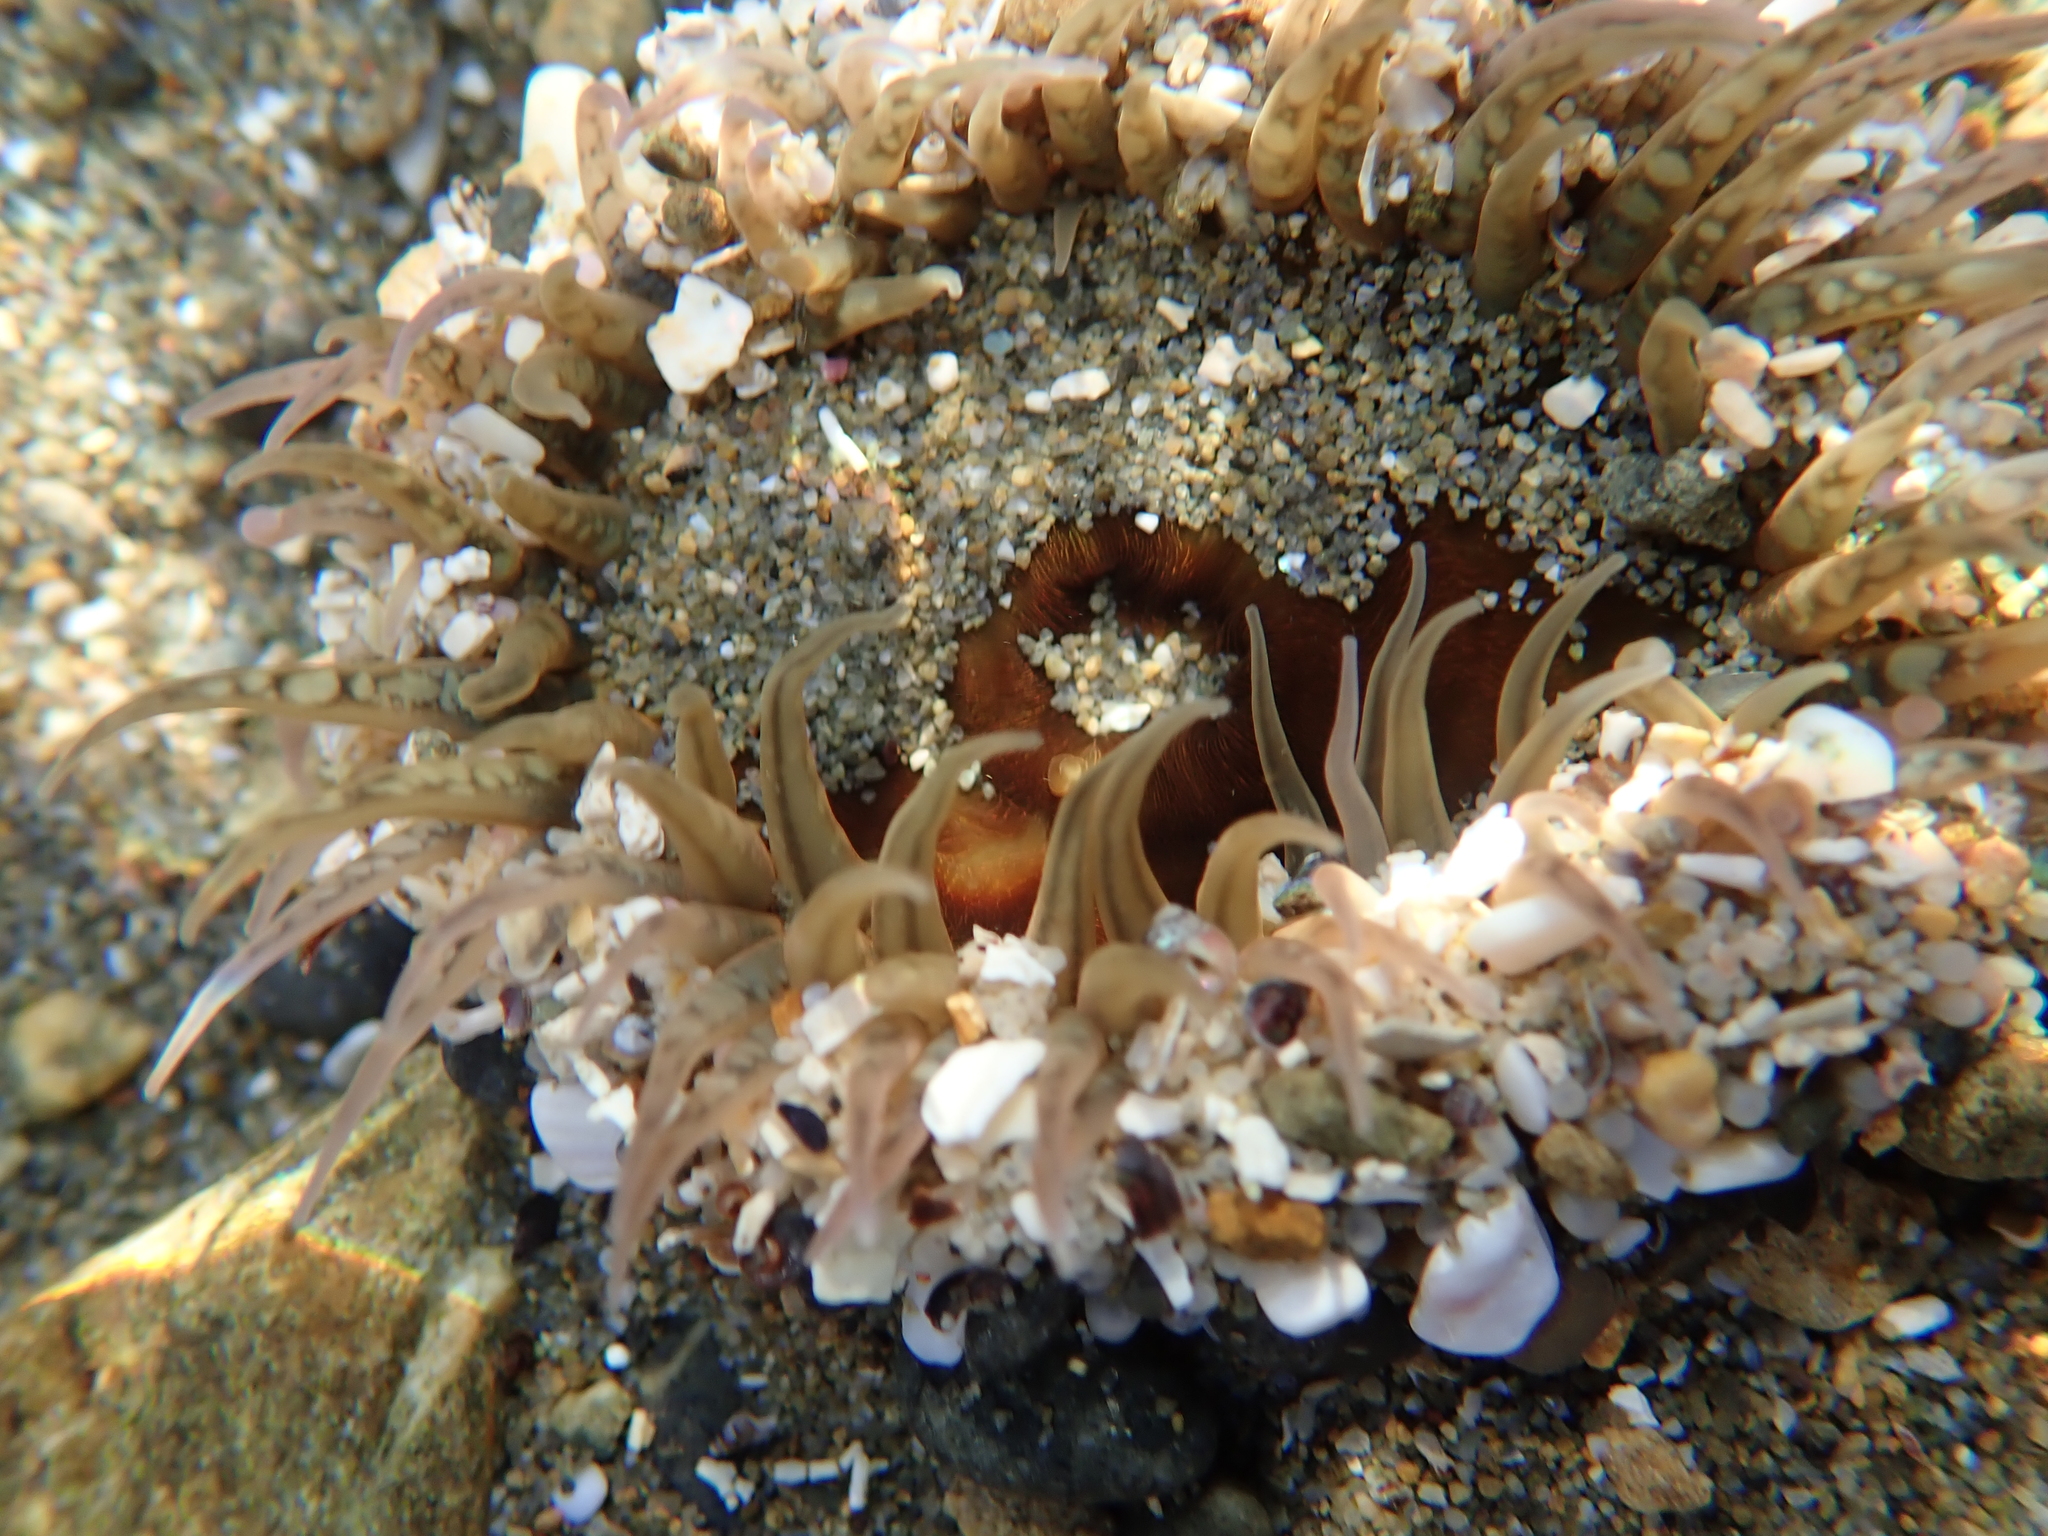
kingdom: Animalia
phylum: Cnidaria
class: Anthozoa
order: Actiniaria
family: Actiniidae
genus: Oulactis
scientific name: Oulactis muscosa
